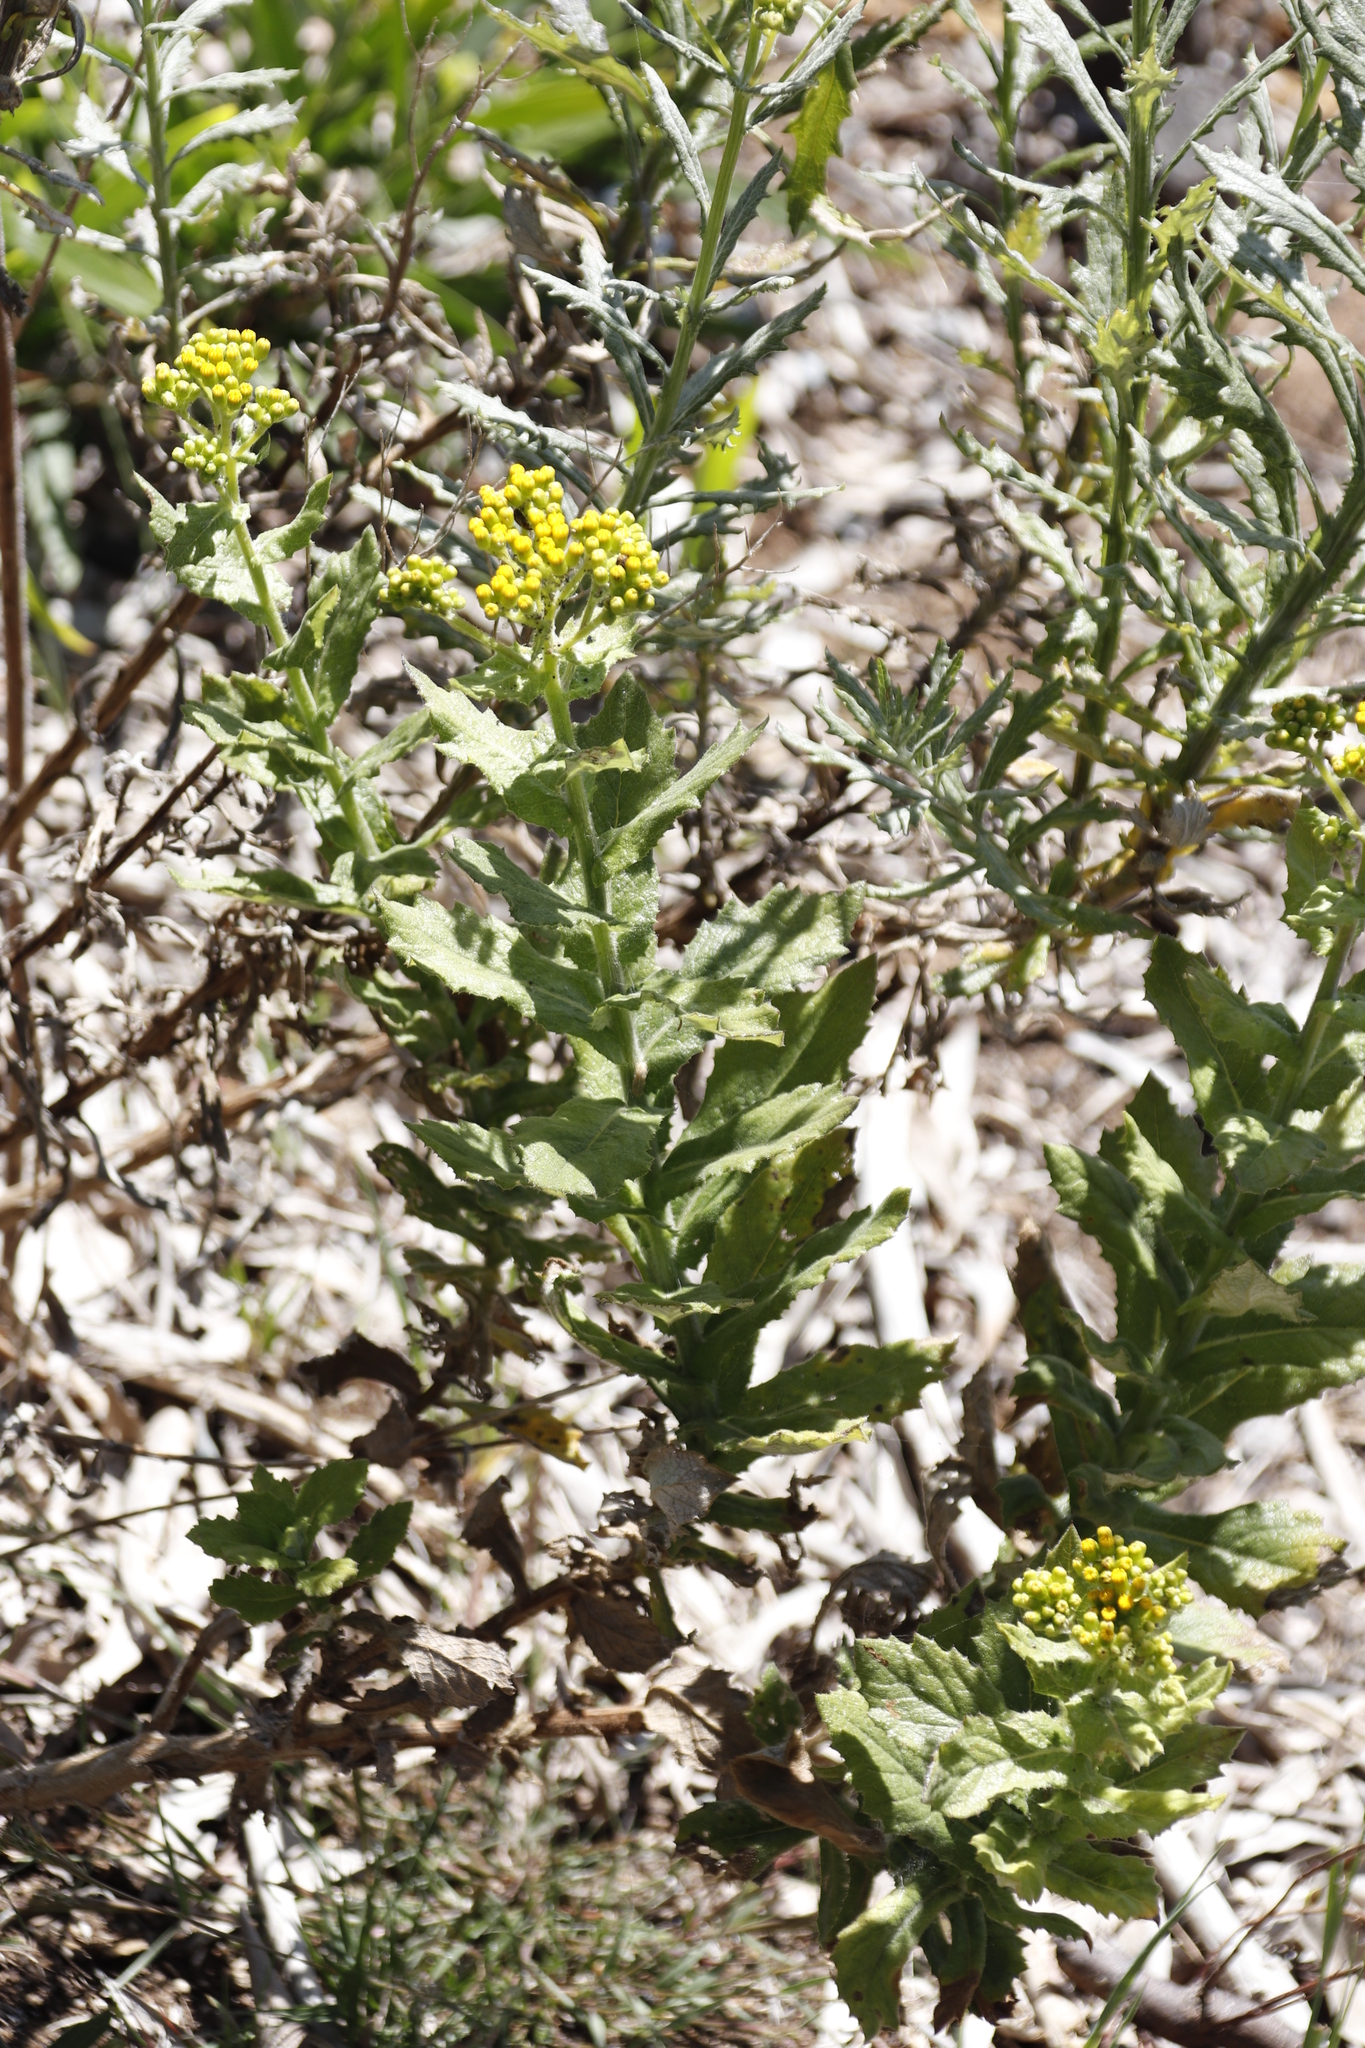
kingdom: Plantae
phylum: Tracheophyta
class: Magnoliopsida
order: Asterales
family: Asteraceae
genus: Senecio
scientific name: Senecio rigidus
